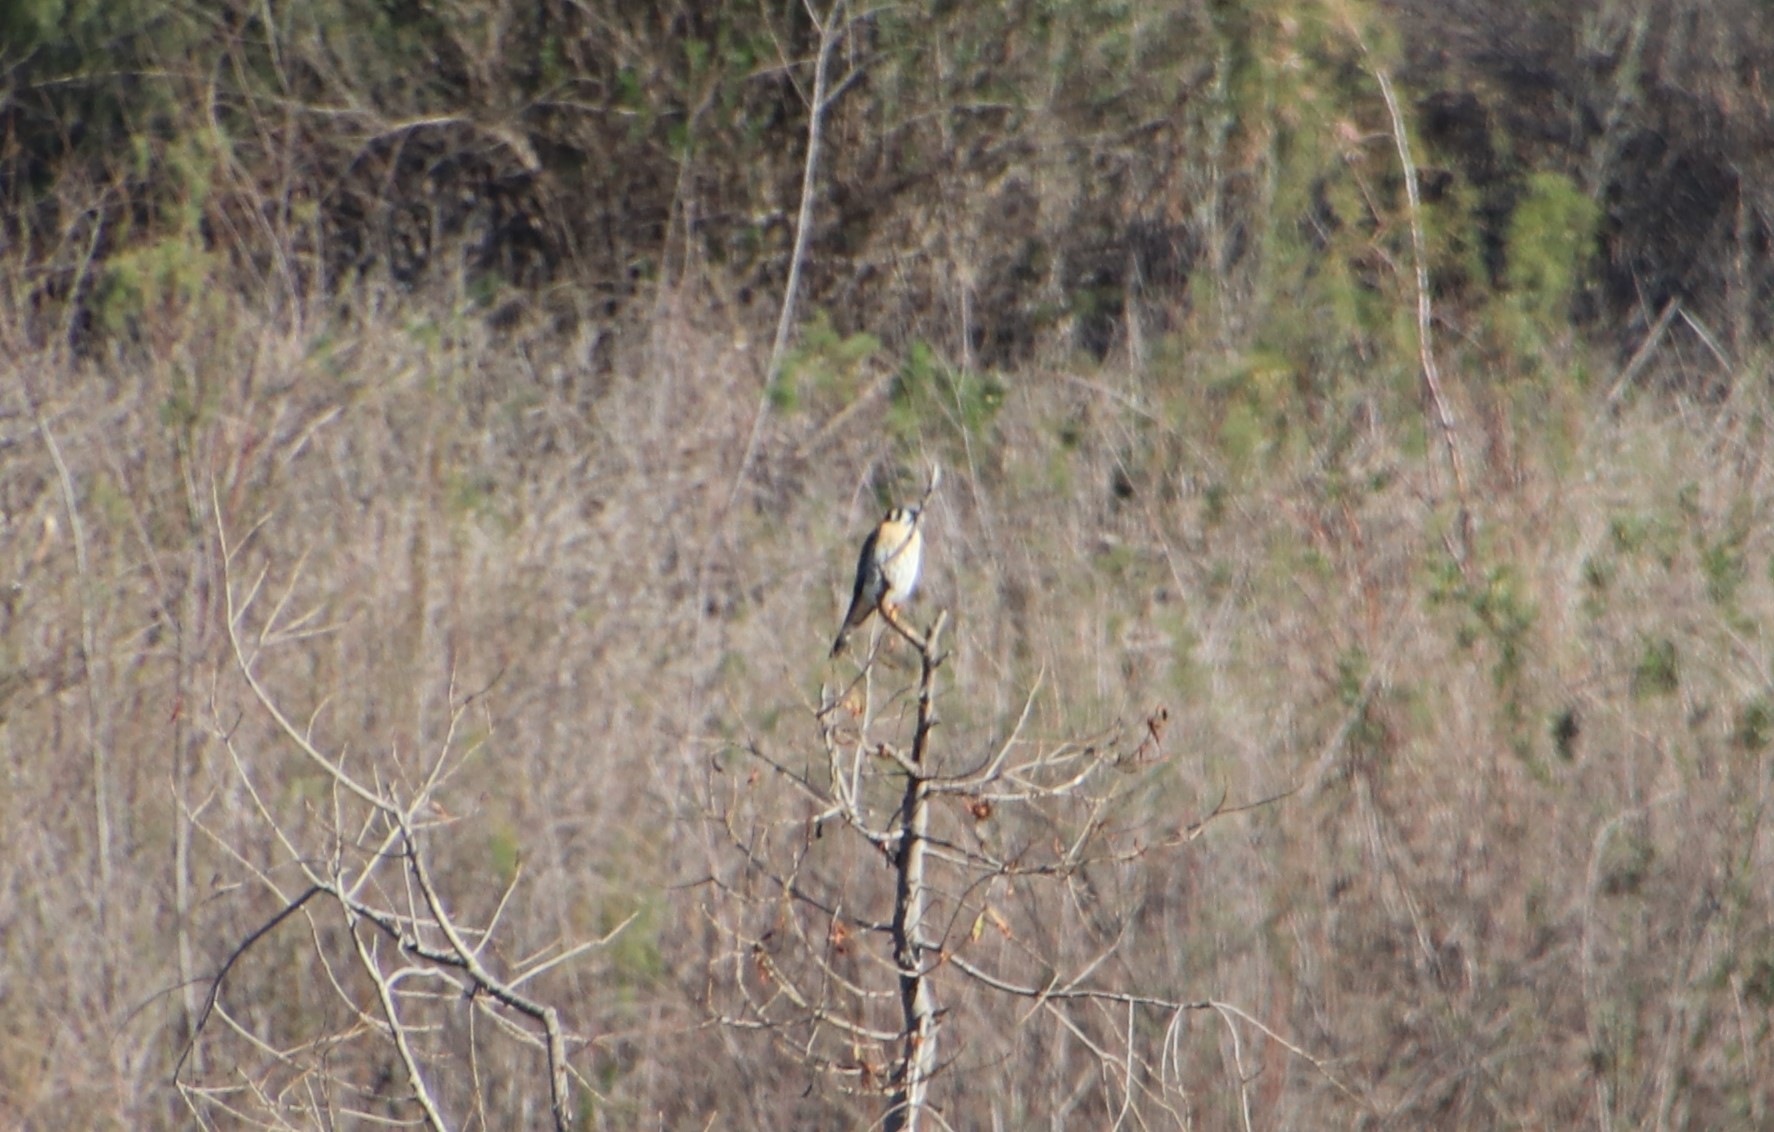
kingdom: Animalia
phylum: Chordata
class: Aves
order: Falconiformes
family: Falconidae
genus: Falco
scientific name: Falco sparverius
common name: American kestrel
